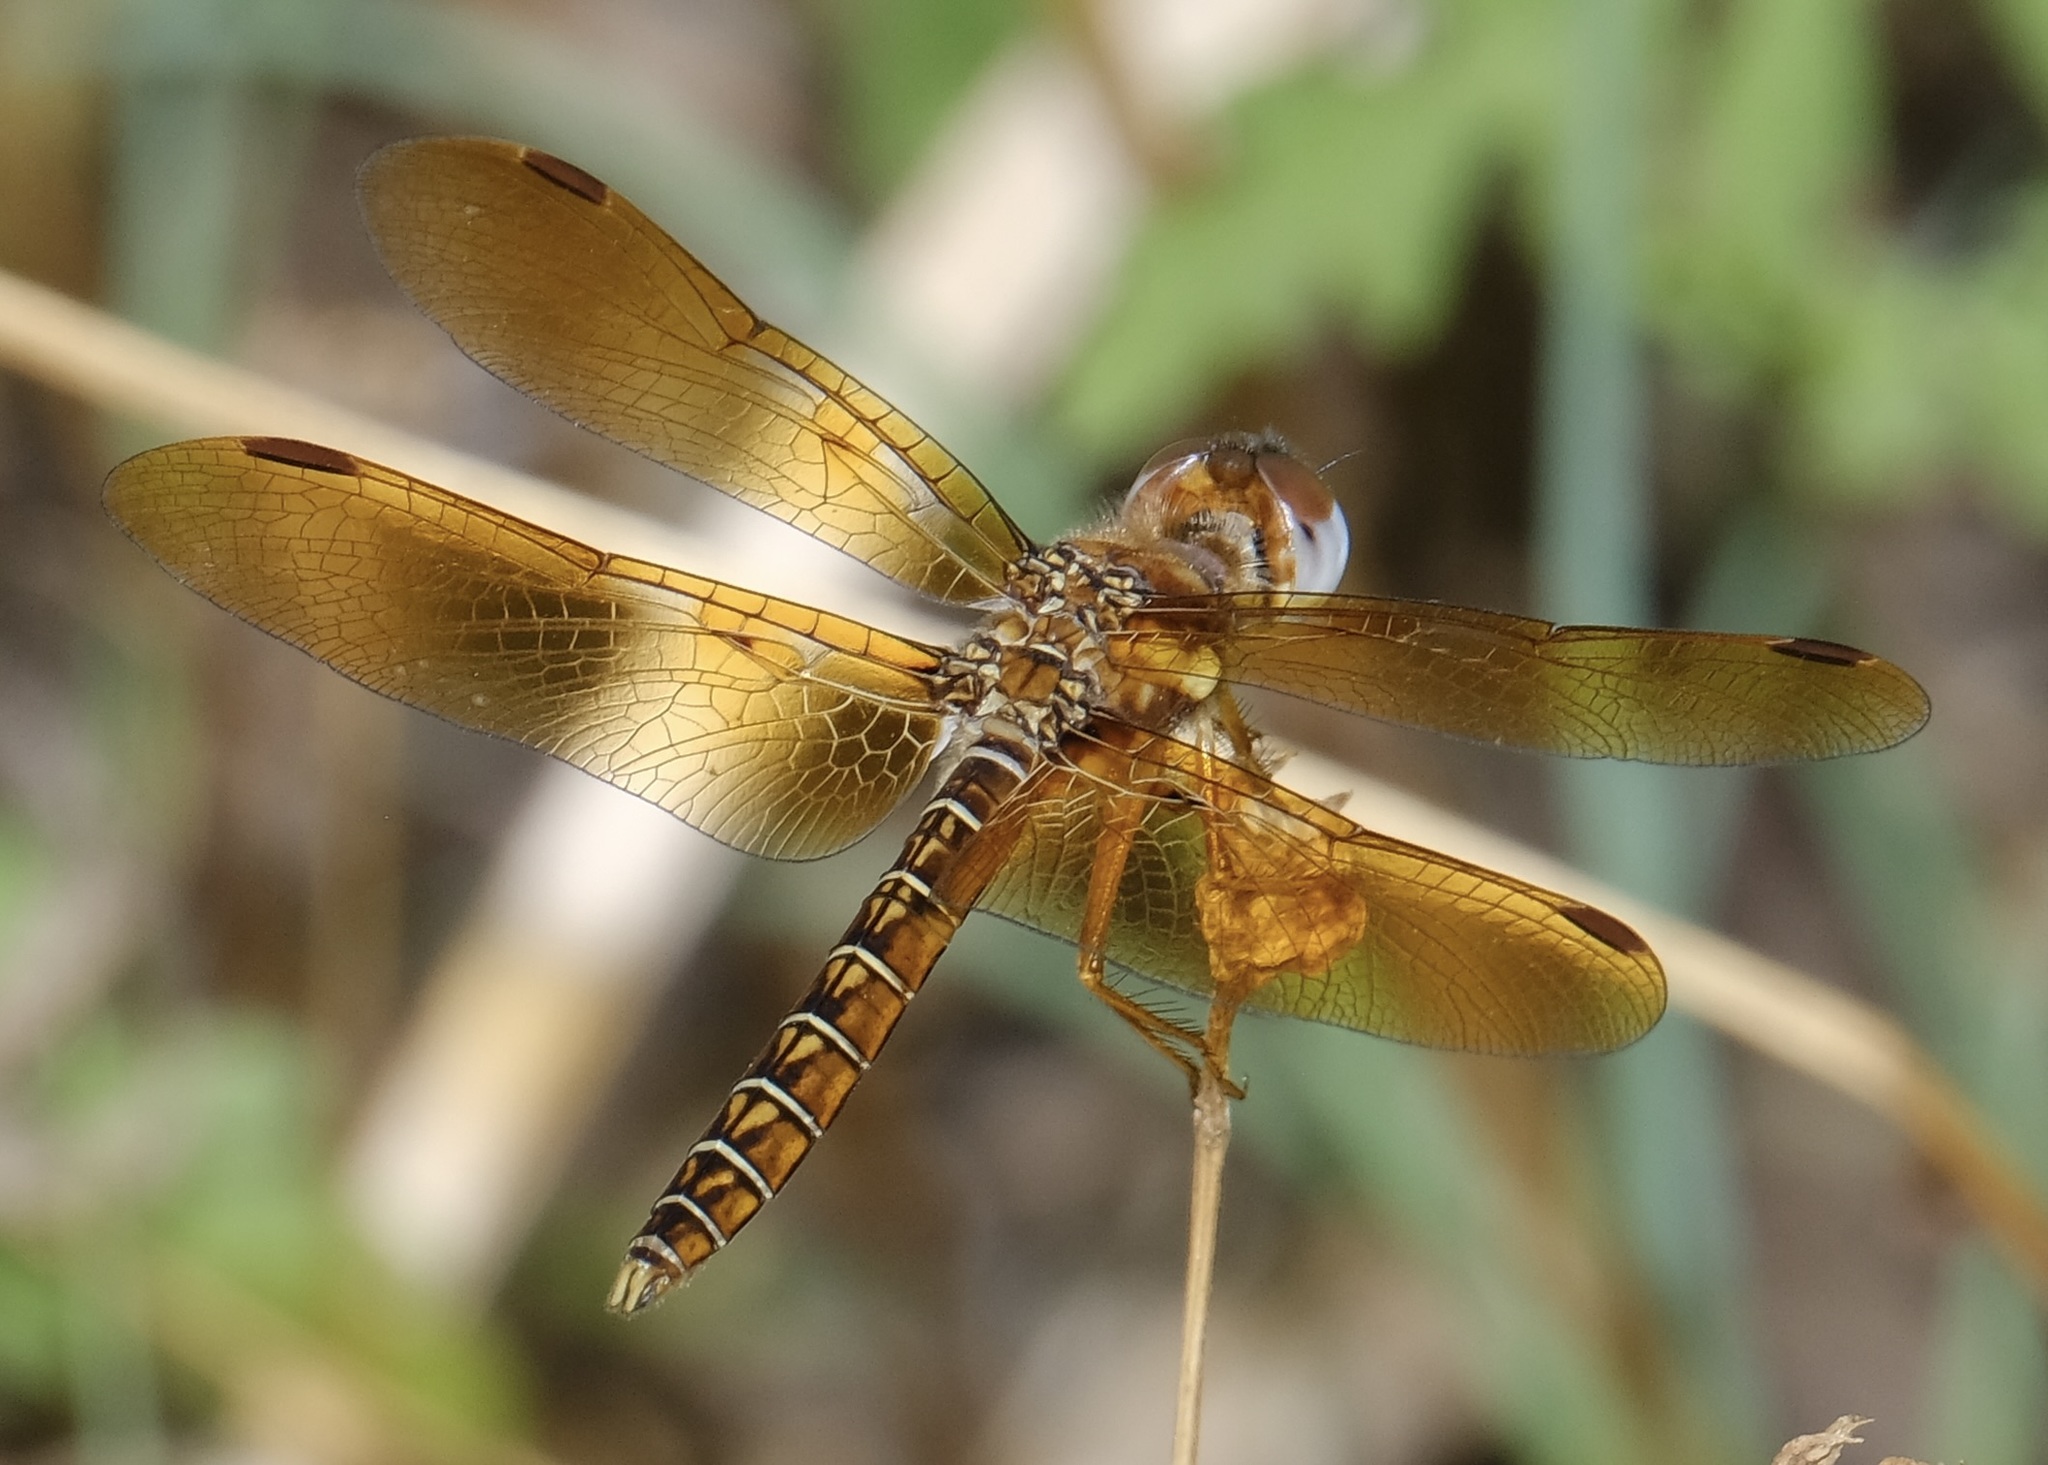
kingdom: Animalia
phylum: Arthropoda
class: Insecta
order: Odonata
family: Libellulidae
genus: Perithemis
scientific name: Perithemis tenera
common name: Eastern amberwing
